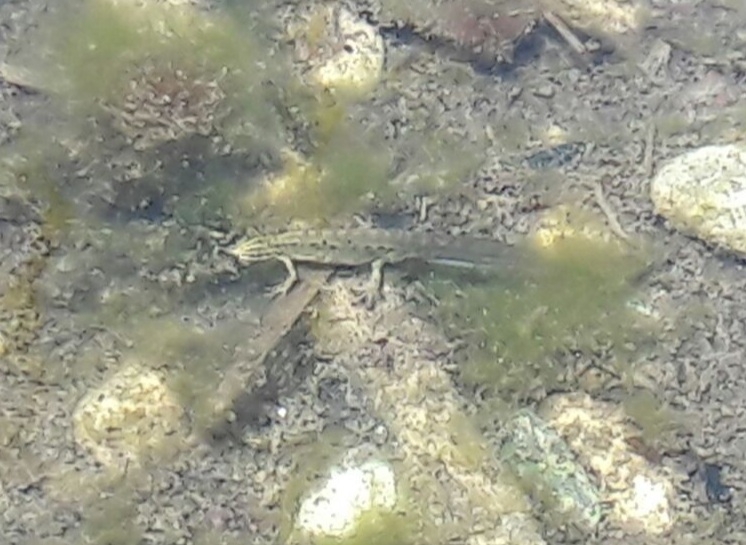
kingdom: Animalia
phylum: Chordata
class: Amphibia
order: Caudata
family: Salamandridae
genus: Lissotriton
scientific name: Lissotriton vulgaris
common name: Smooth newt
